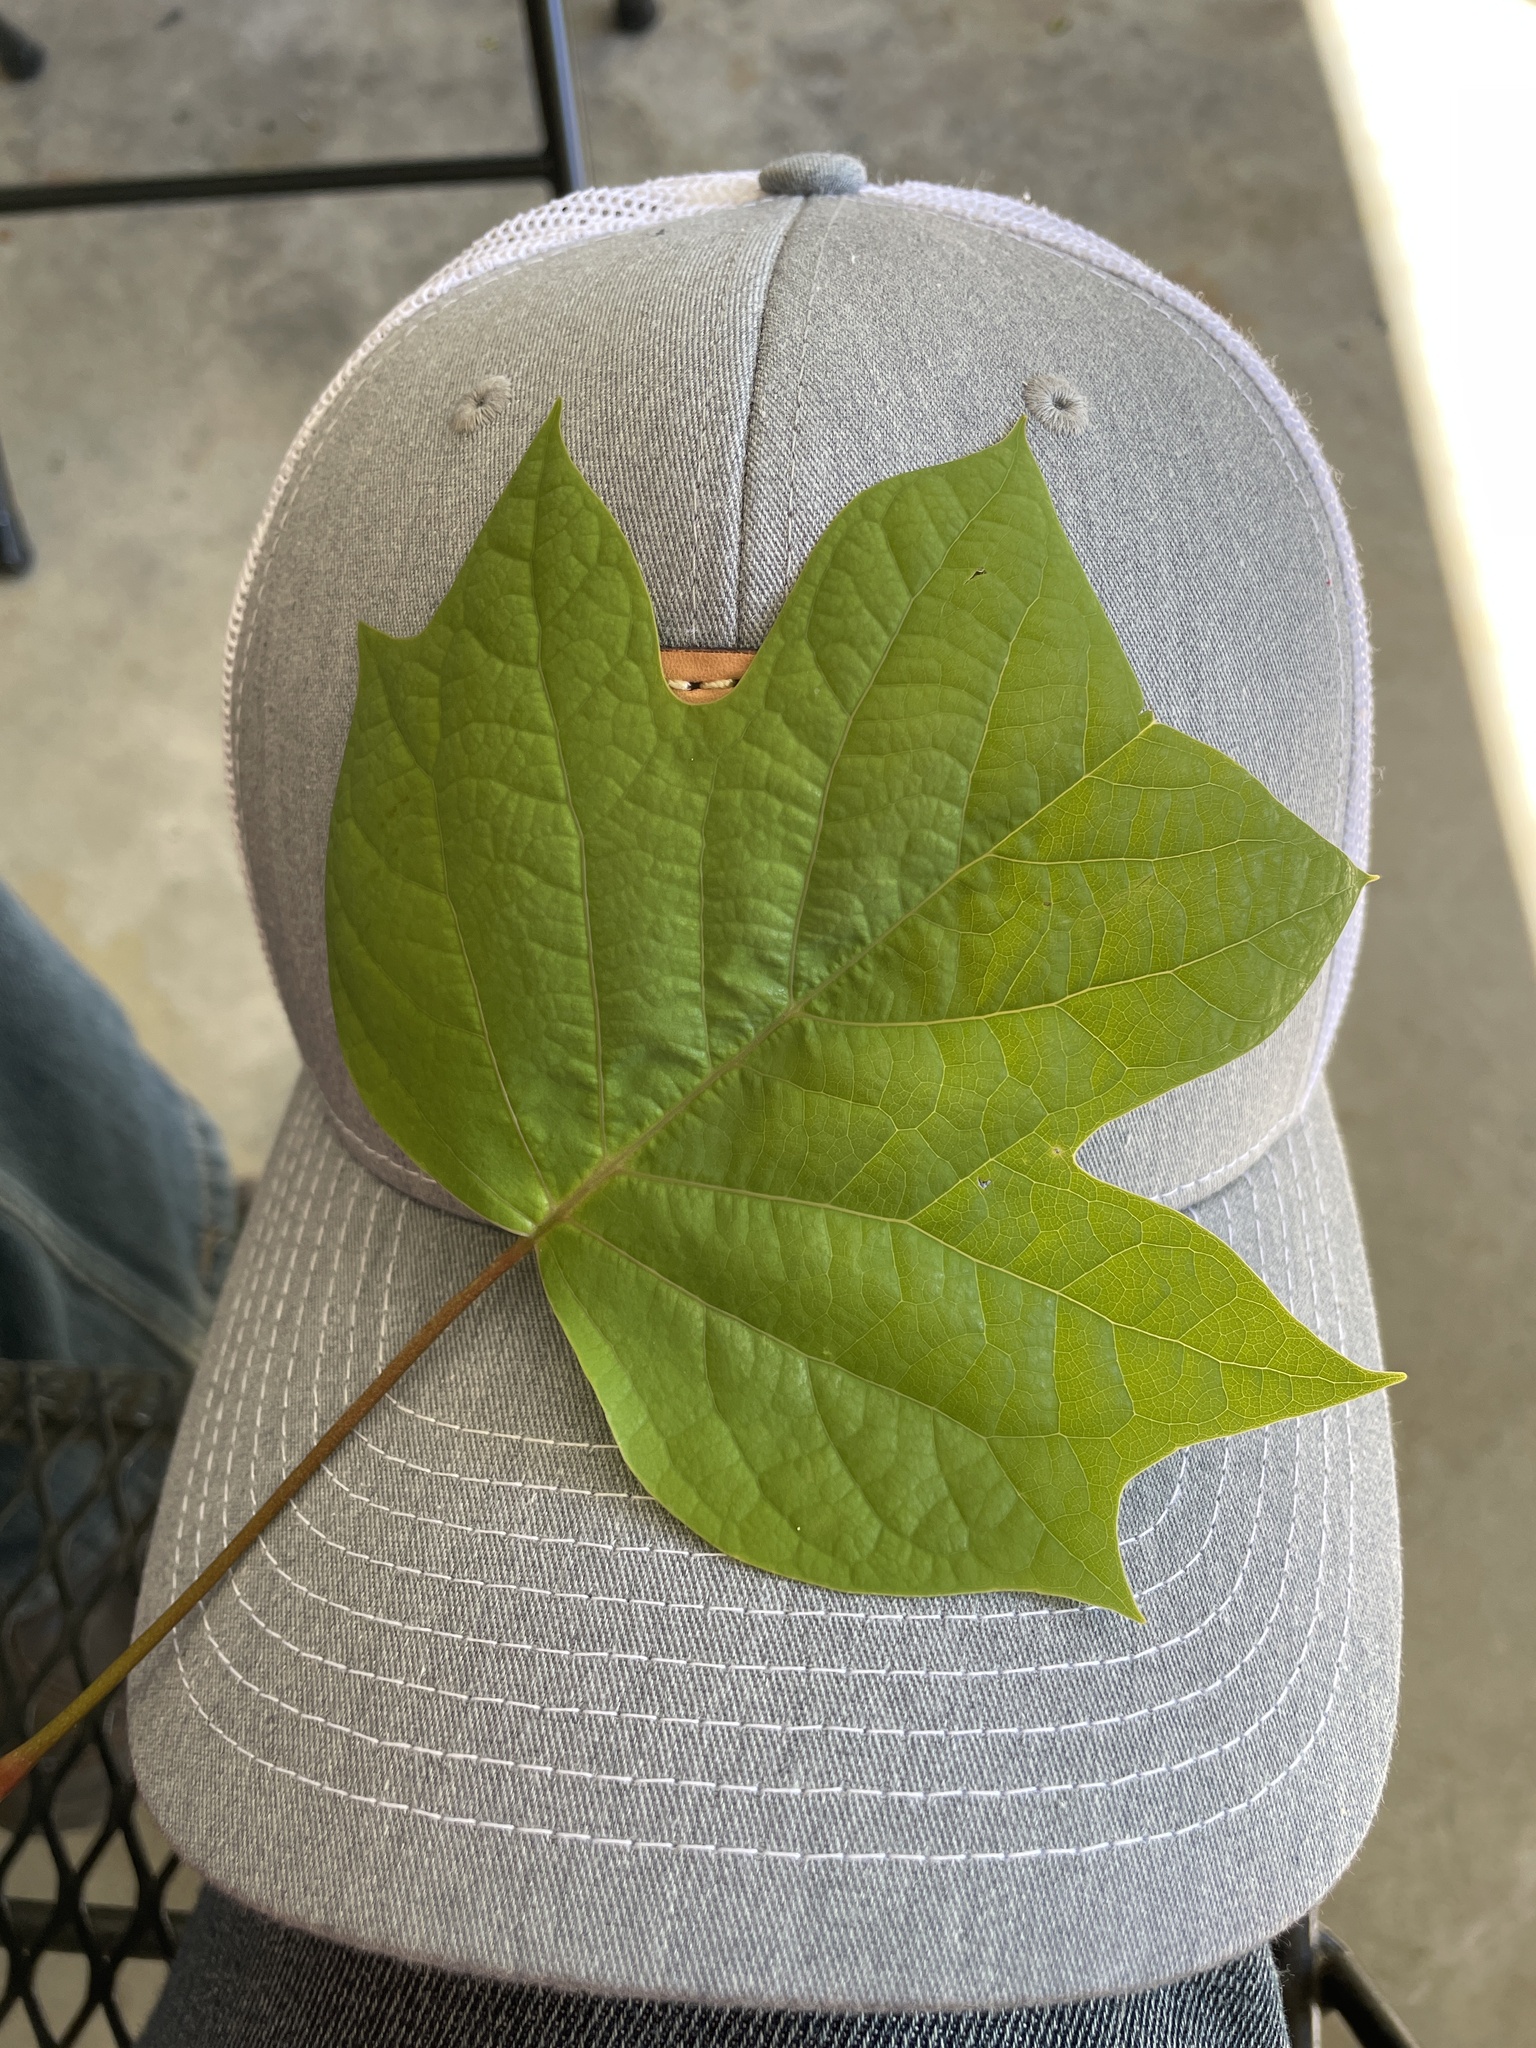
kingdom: Plantae
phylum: Tracheophyta
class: Magnoliopsida
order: Magnoliales
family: Magnoliaceae
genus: Liriodendron
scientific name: Liriodendron tulipifera
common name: Tulip tree
